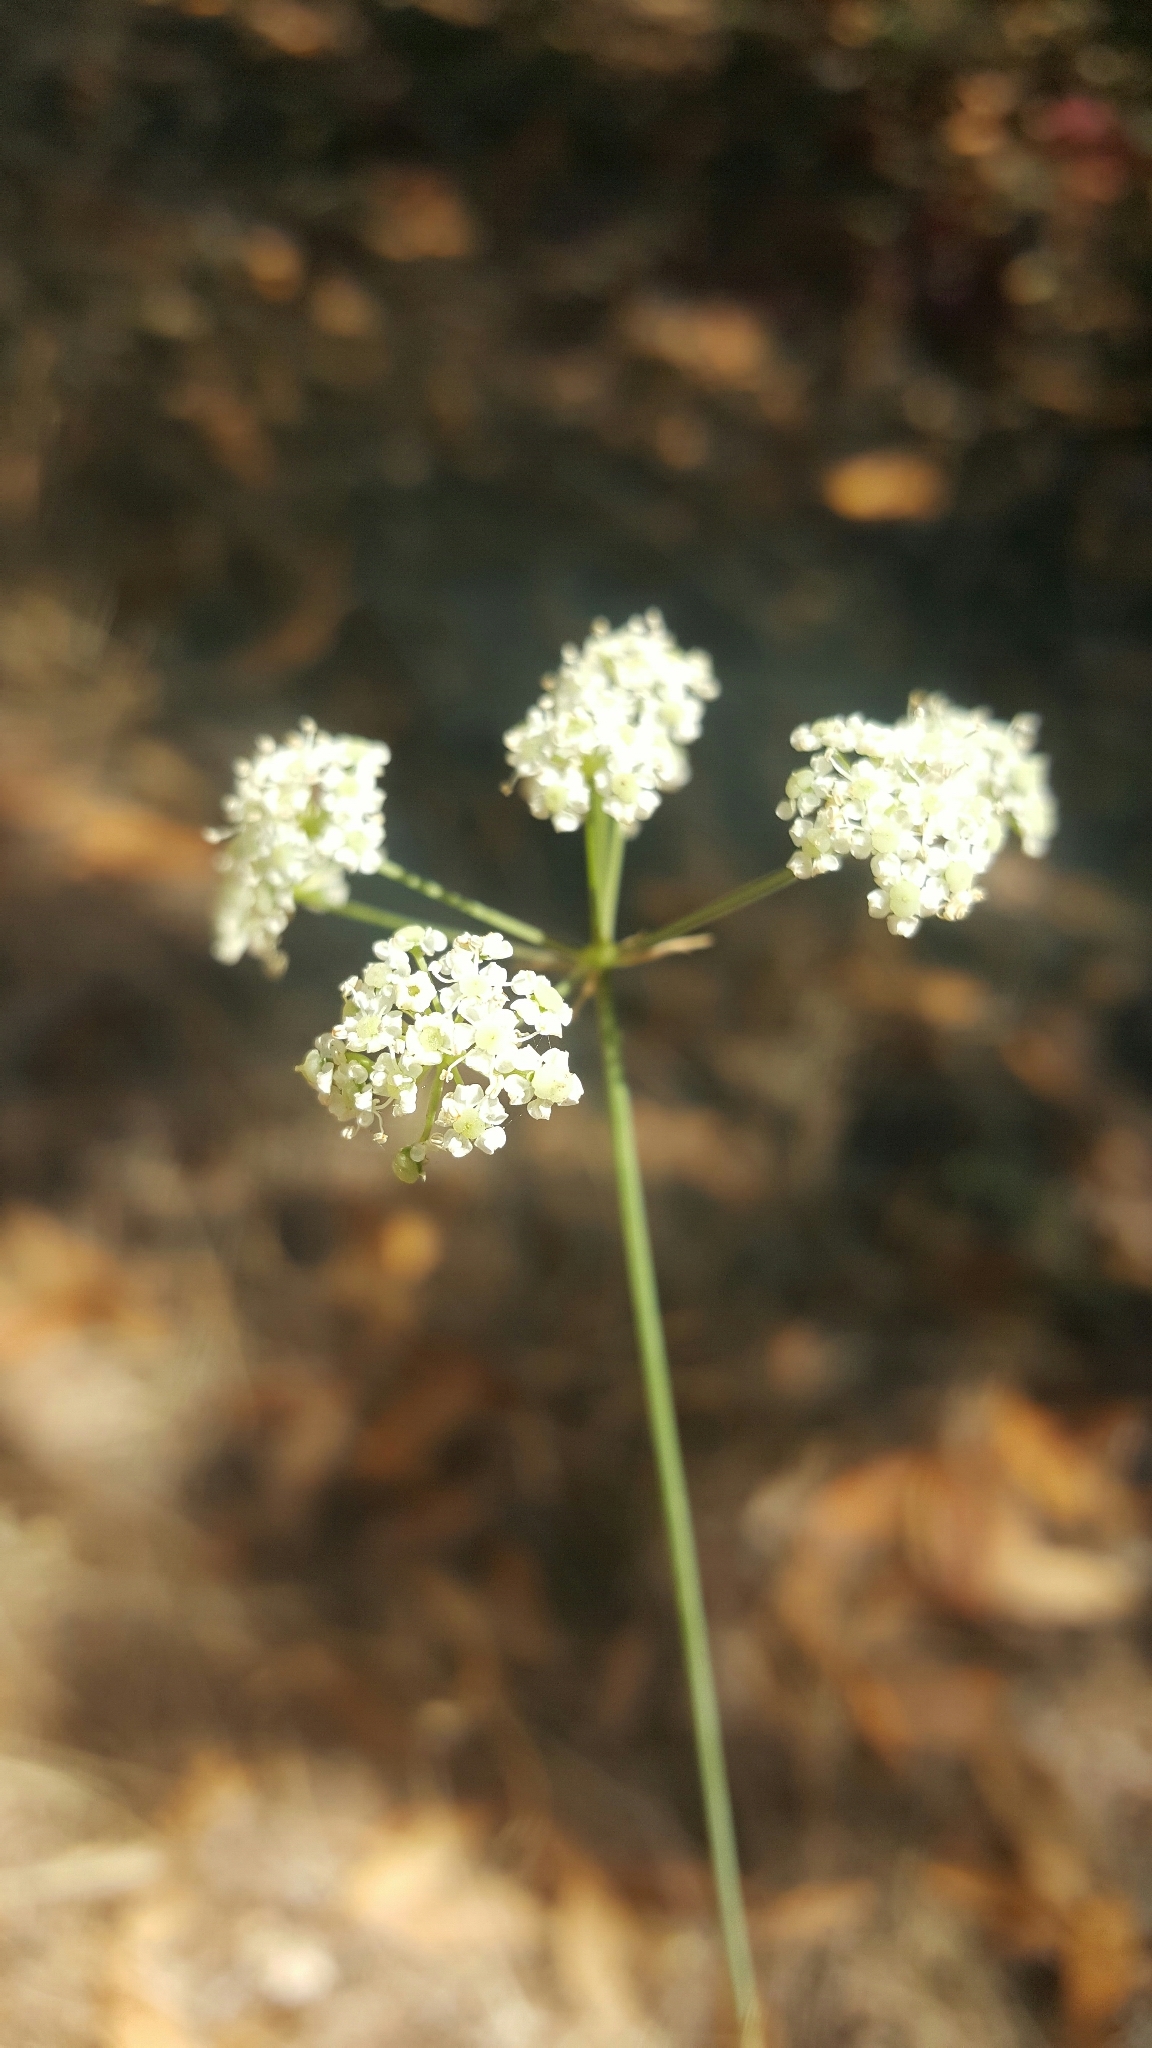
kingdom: Plantae
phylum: Tracheophyta
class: Magnoliopsida
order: Apiales
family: Apiaceae
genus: Perideridia
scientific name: Perideridia kelloggii
